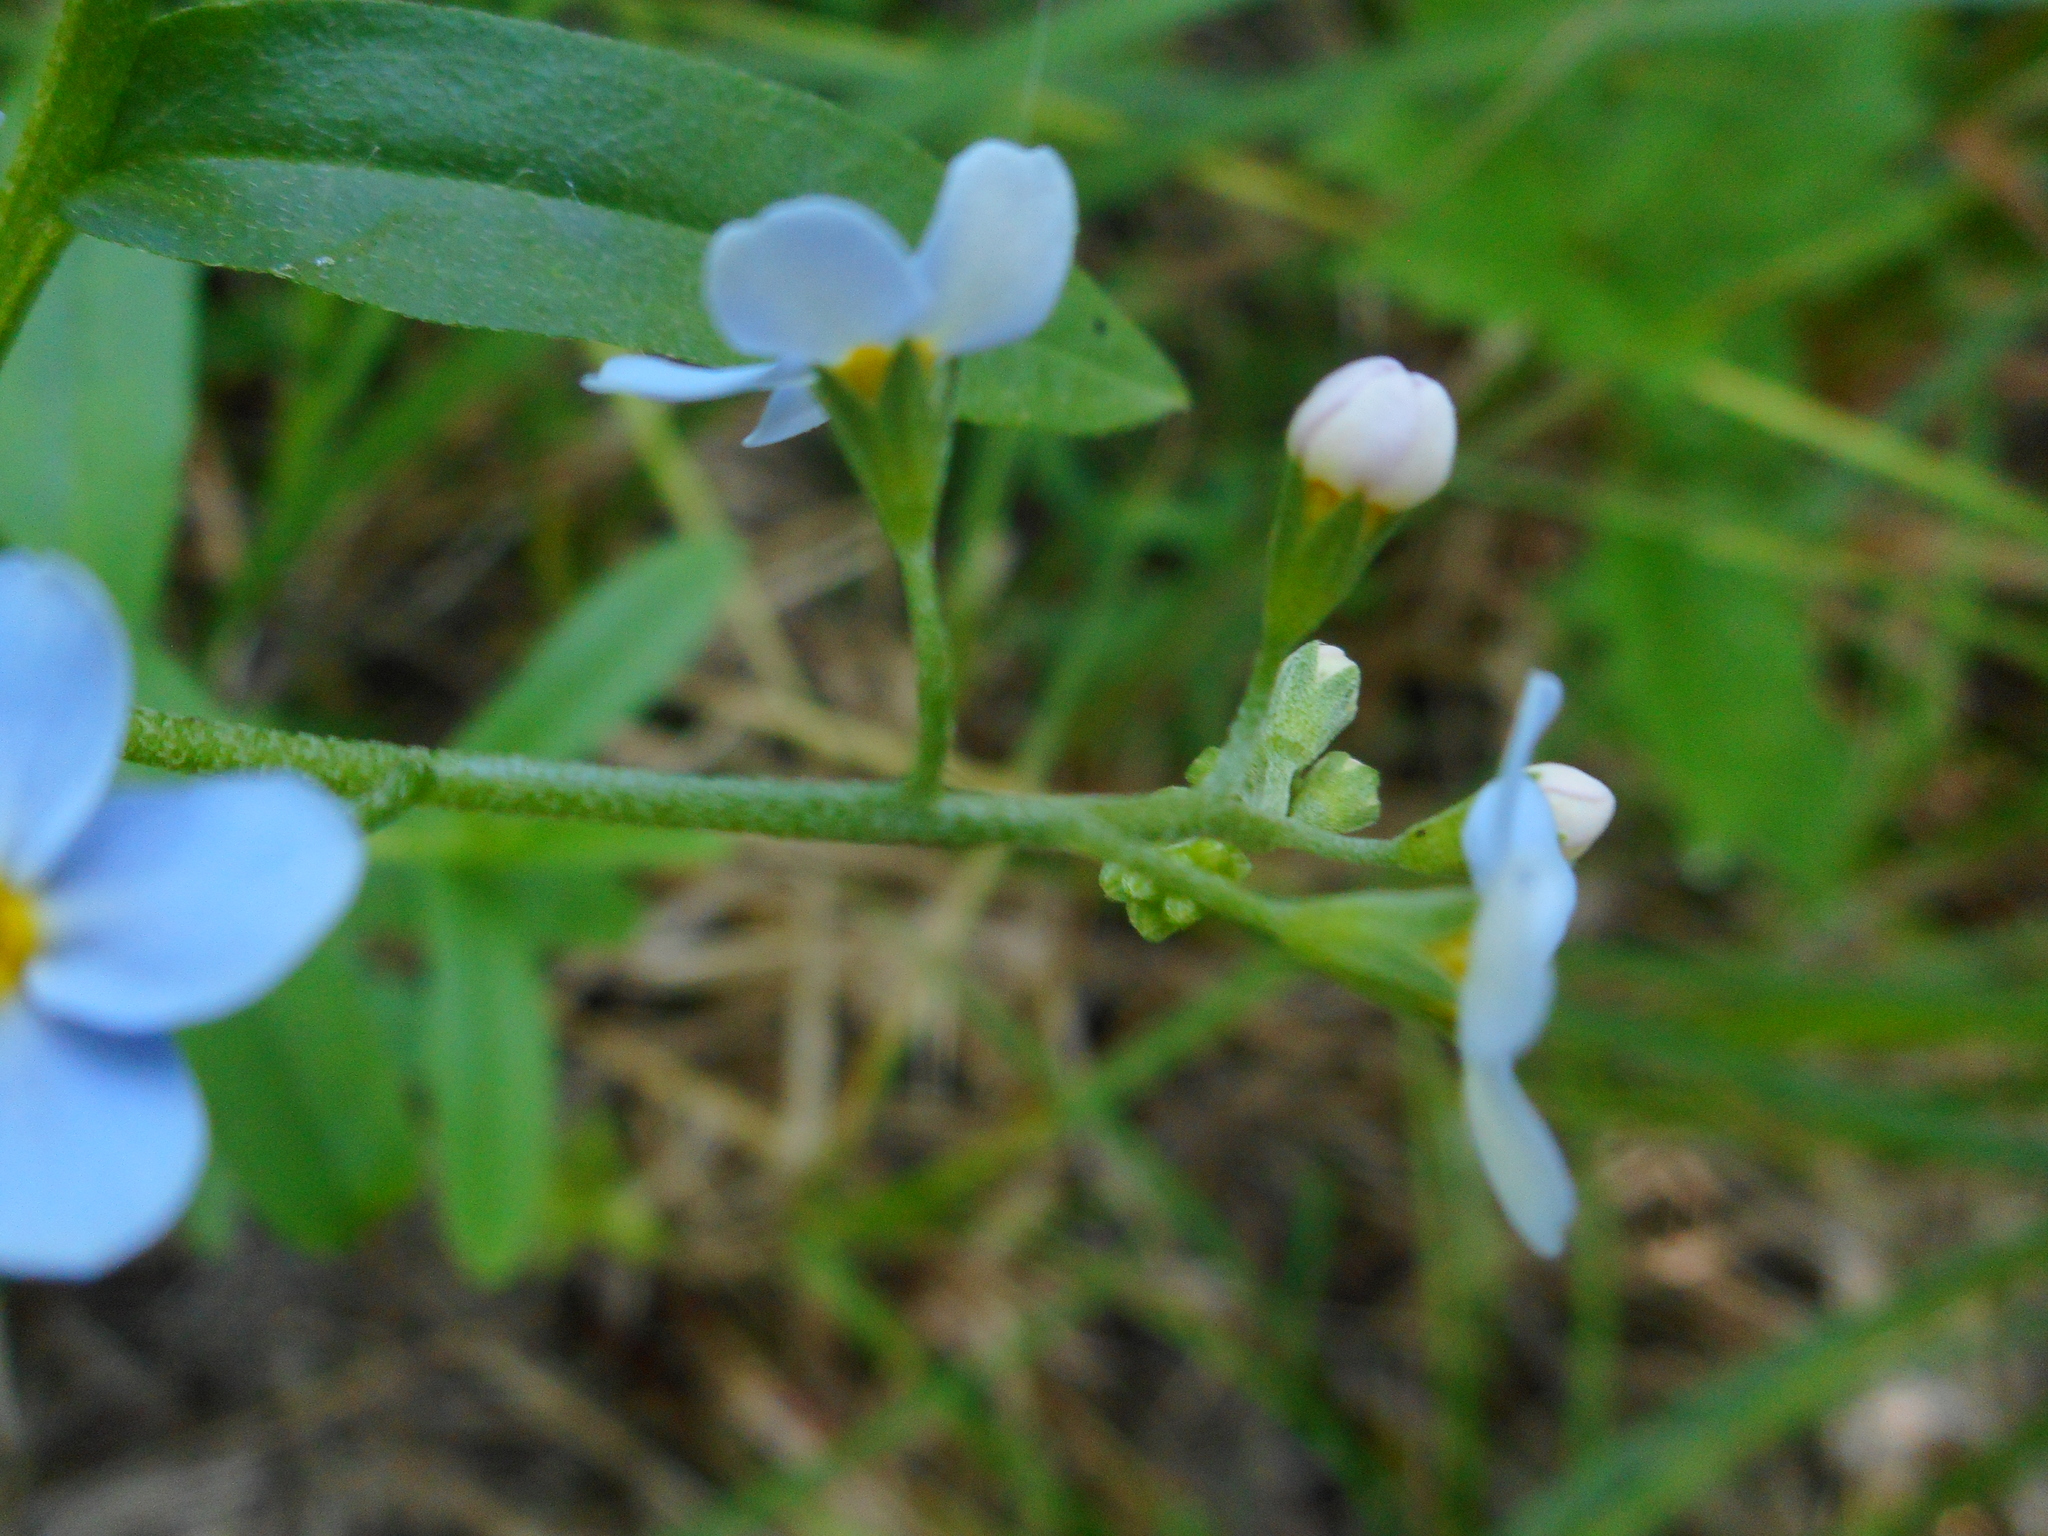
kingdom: Plantae
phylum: Tracheophyta
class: Magnoliopsida
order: Boraginales
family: Boraginaceae
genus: Myosotis
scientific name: Myosotis scorpioides
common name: Water forget-me-not
